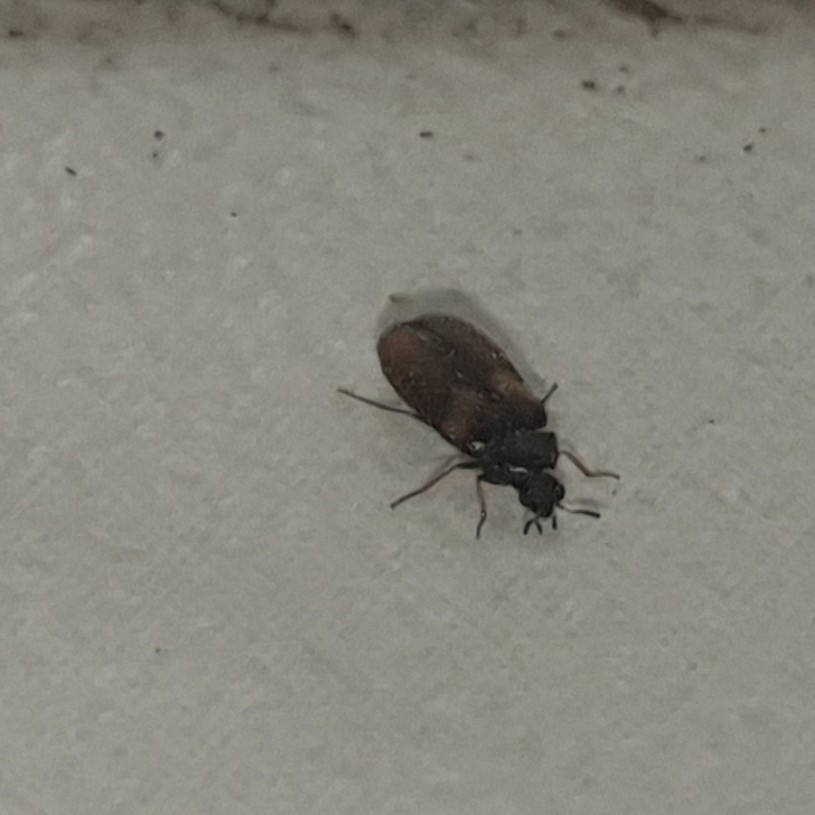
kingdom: Animalia
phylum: Arthropoda
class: Insecta
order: Coleoptera
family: Dermestidae
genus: Reesa
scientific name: Reesa vespulae
